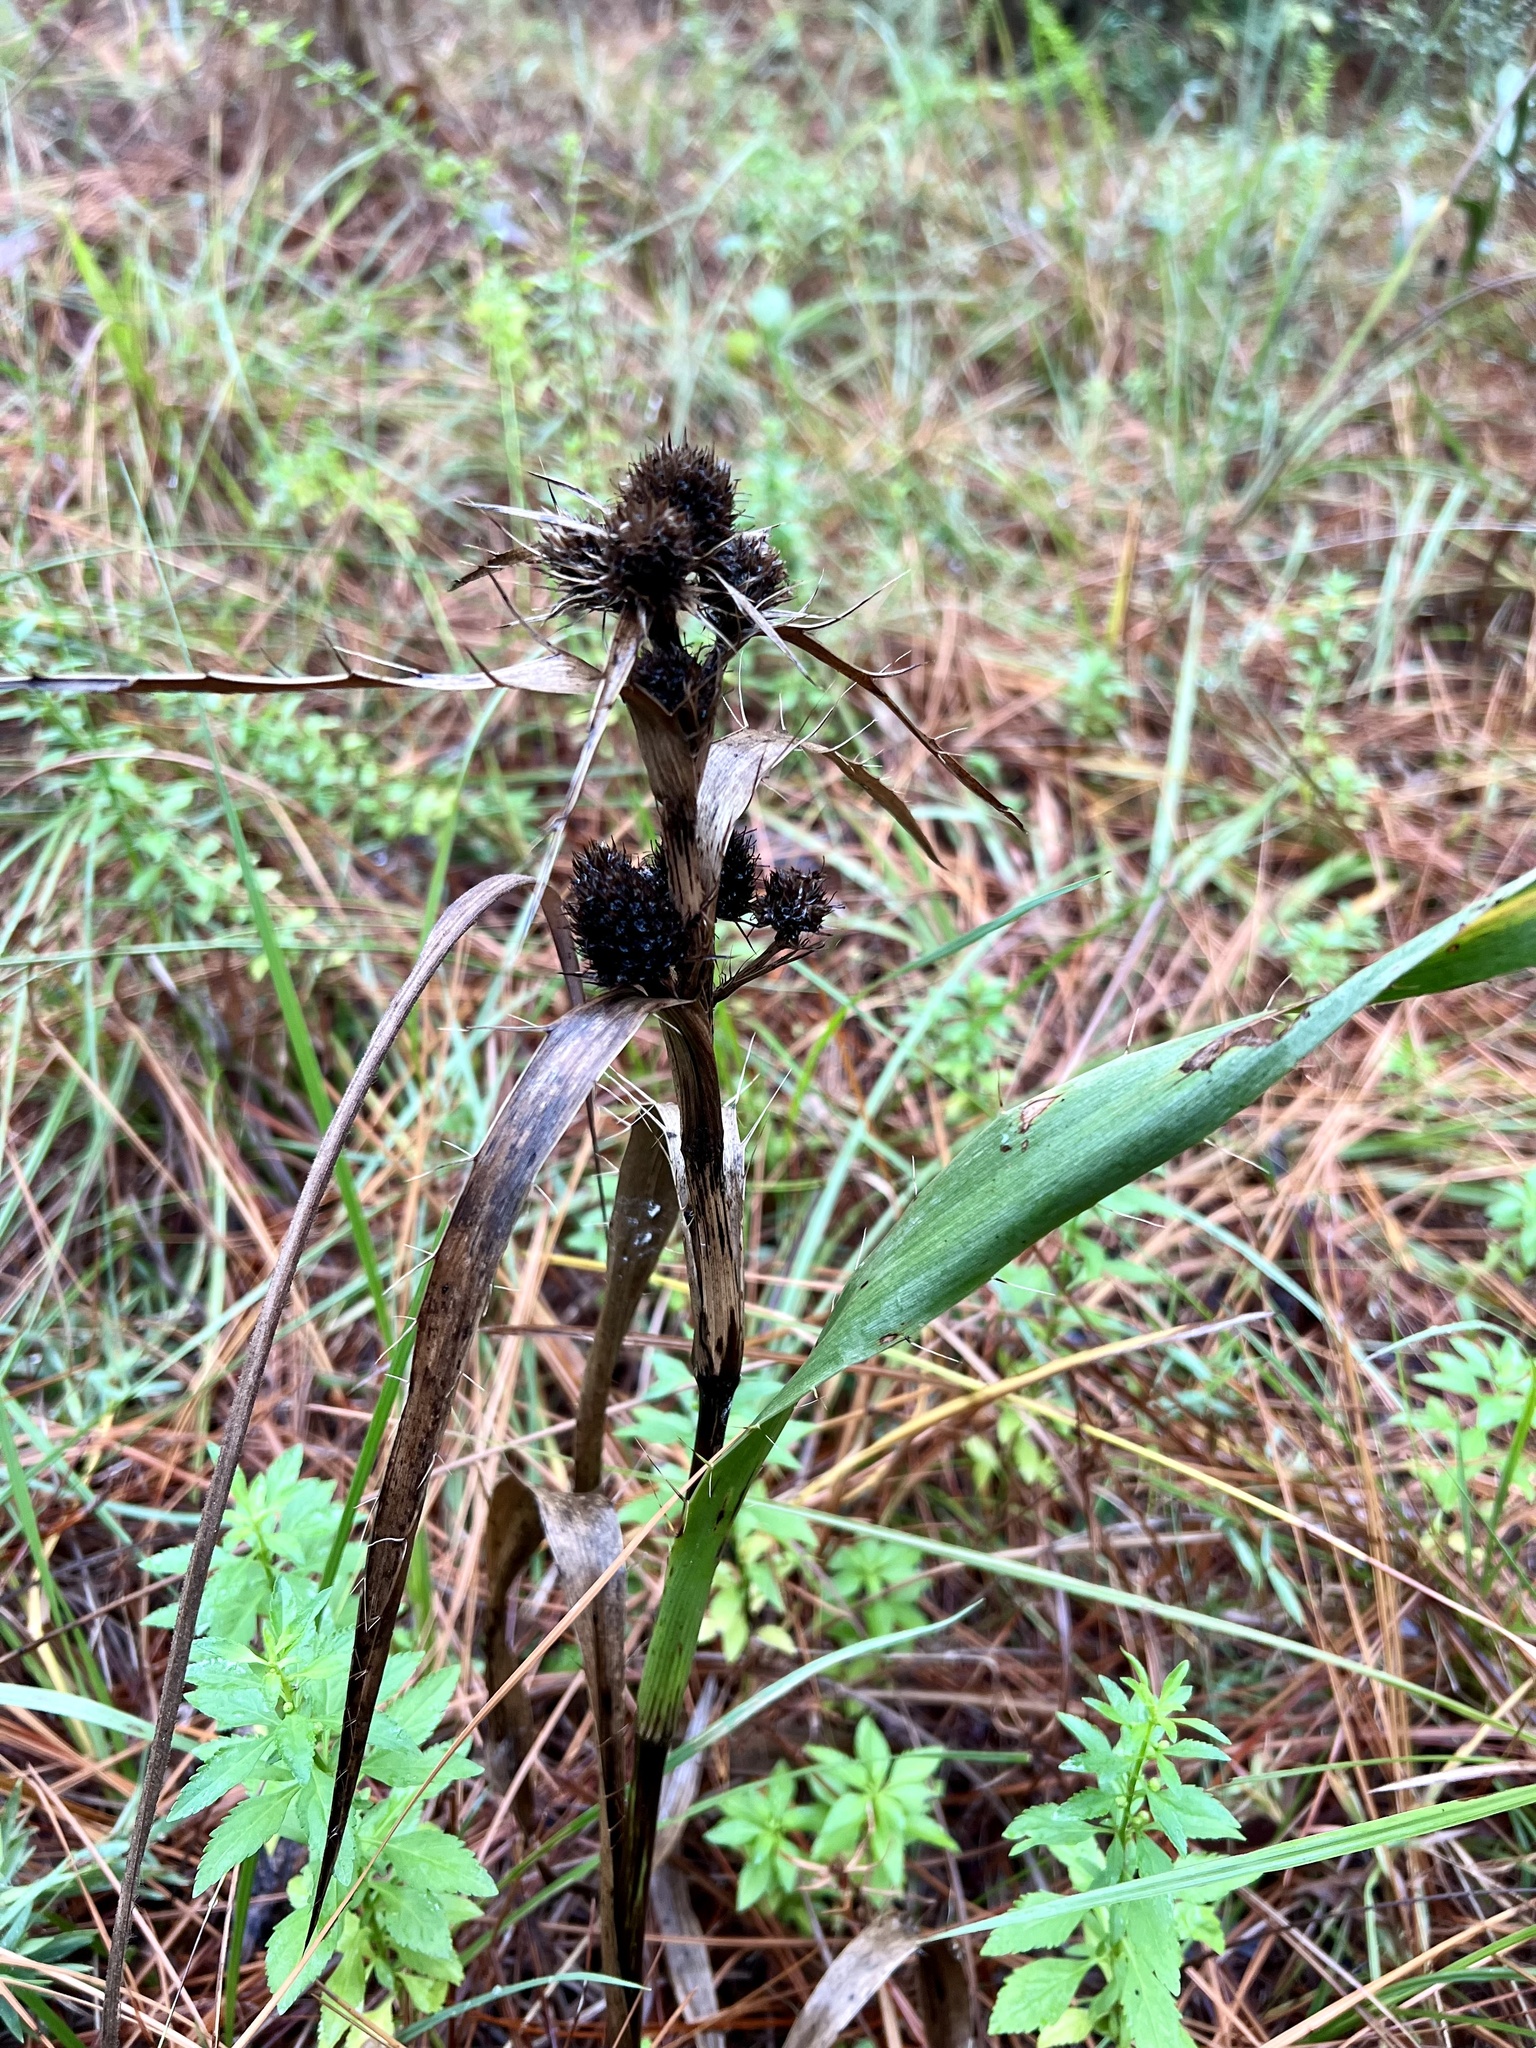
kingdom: Plantae
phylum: Tracheophyta
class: Magnoliopsida
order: Apiales
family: Apiaceae
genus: Eryngium
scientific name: Eryngium yuccifolium
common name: Button eryngo
